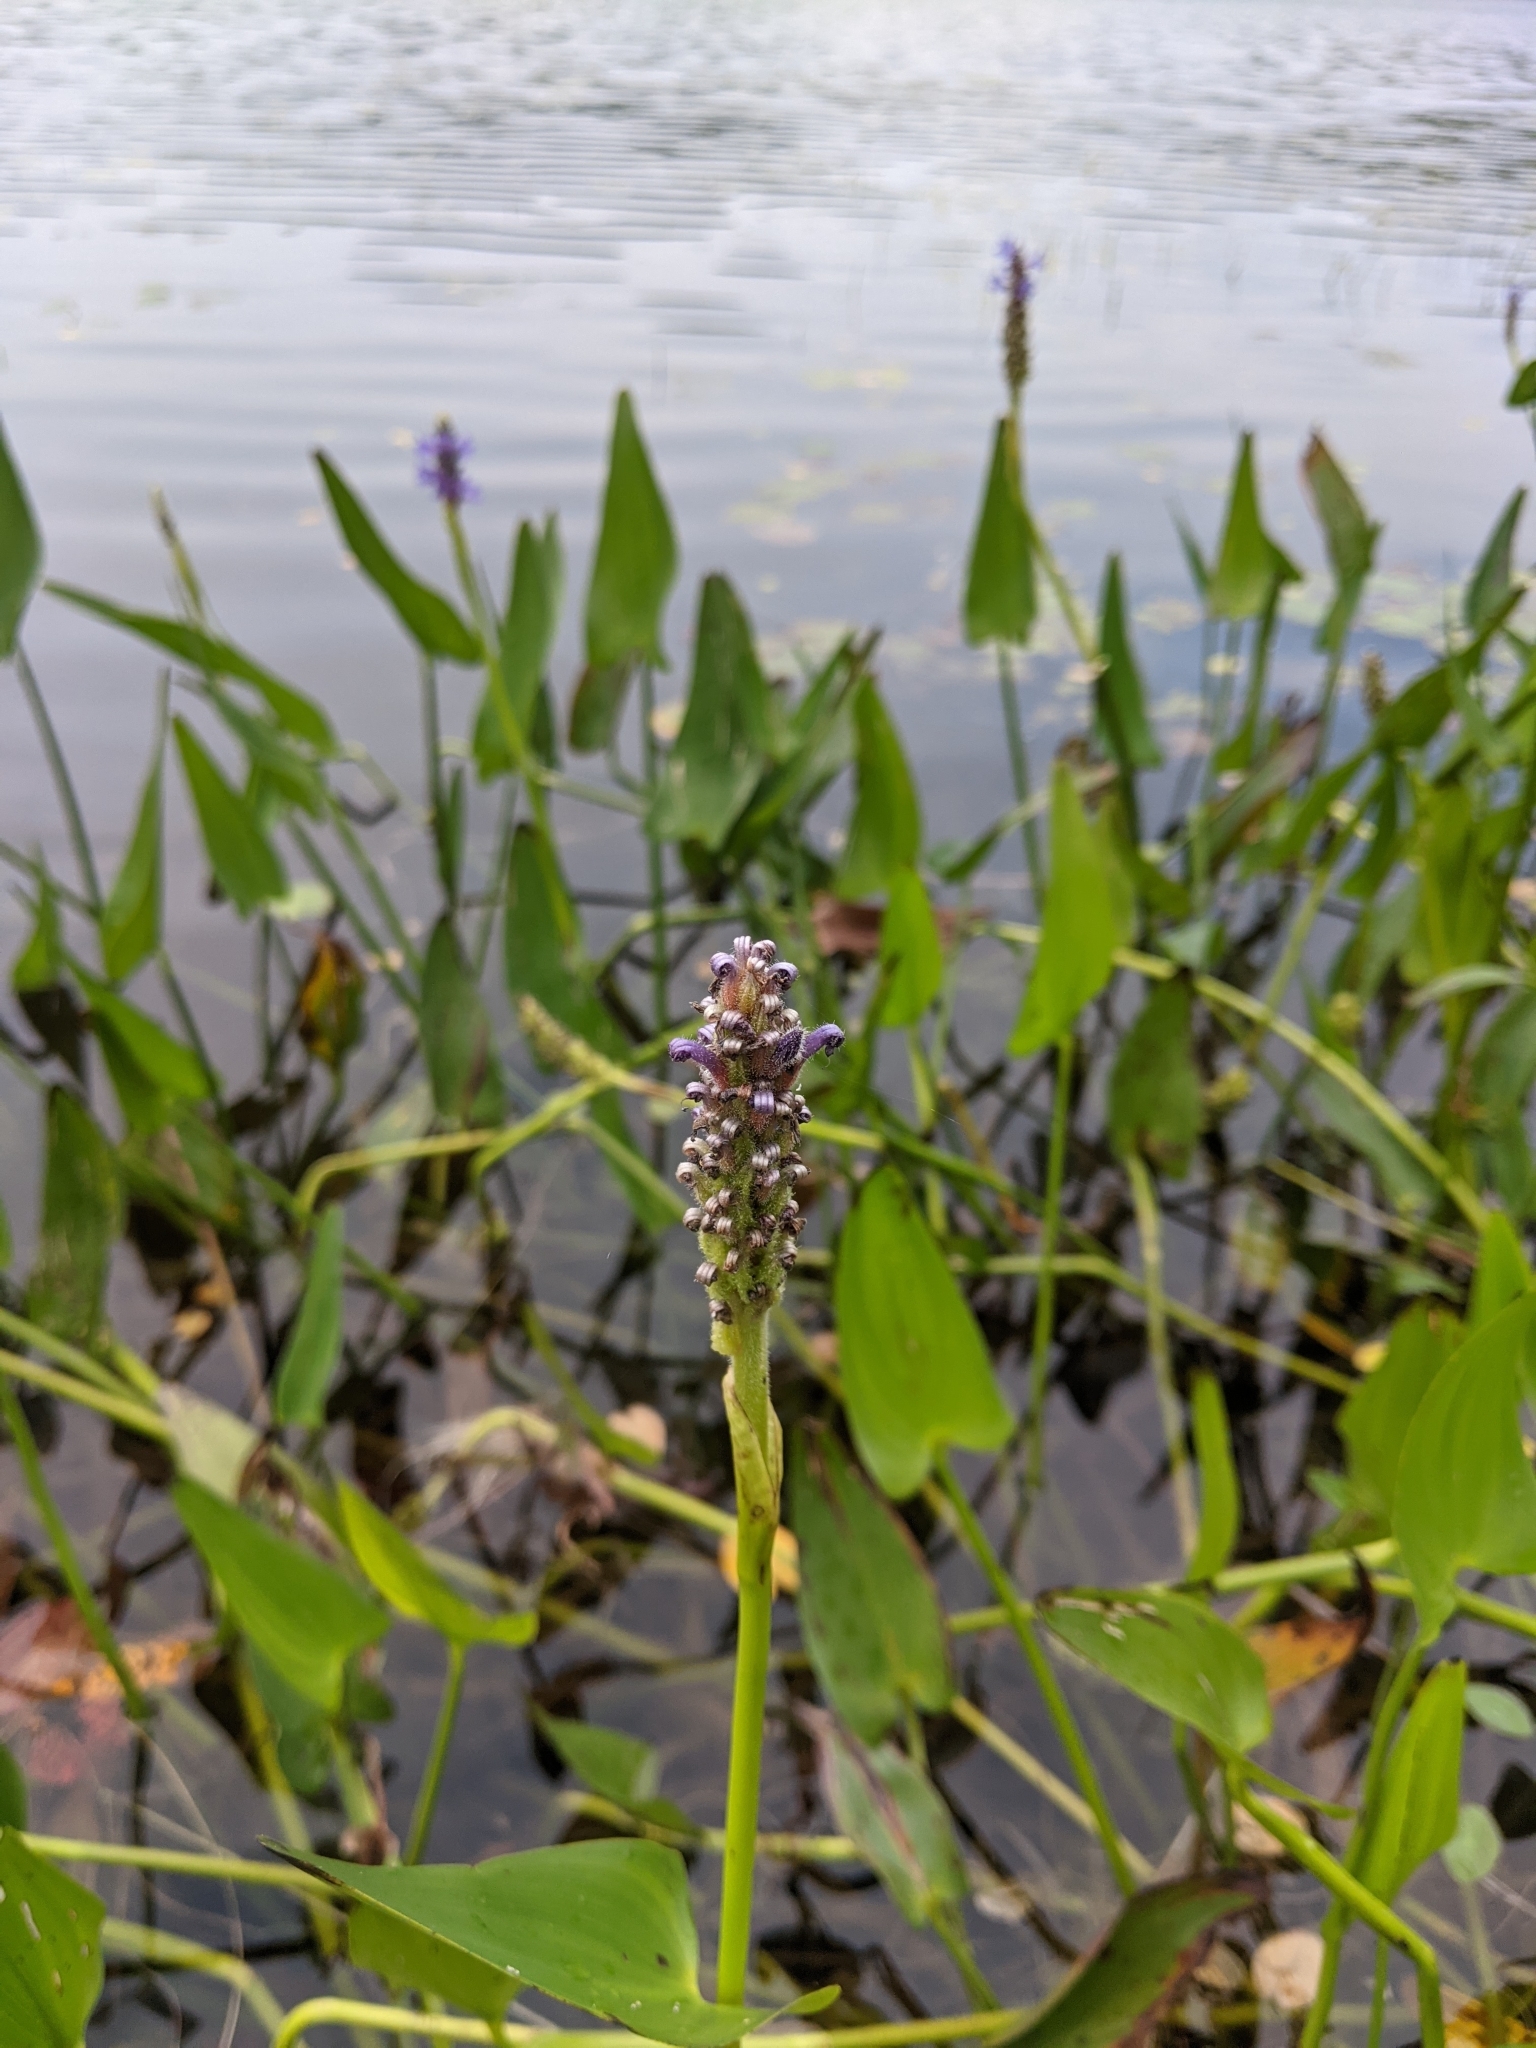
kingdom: Plantae
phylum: Tracheophyta
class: Liliopsida
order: Commelinales
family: Pontederiaceae
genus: Pontederia
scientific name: Pontederia cordata
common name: Pickerelweed
